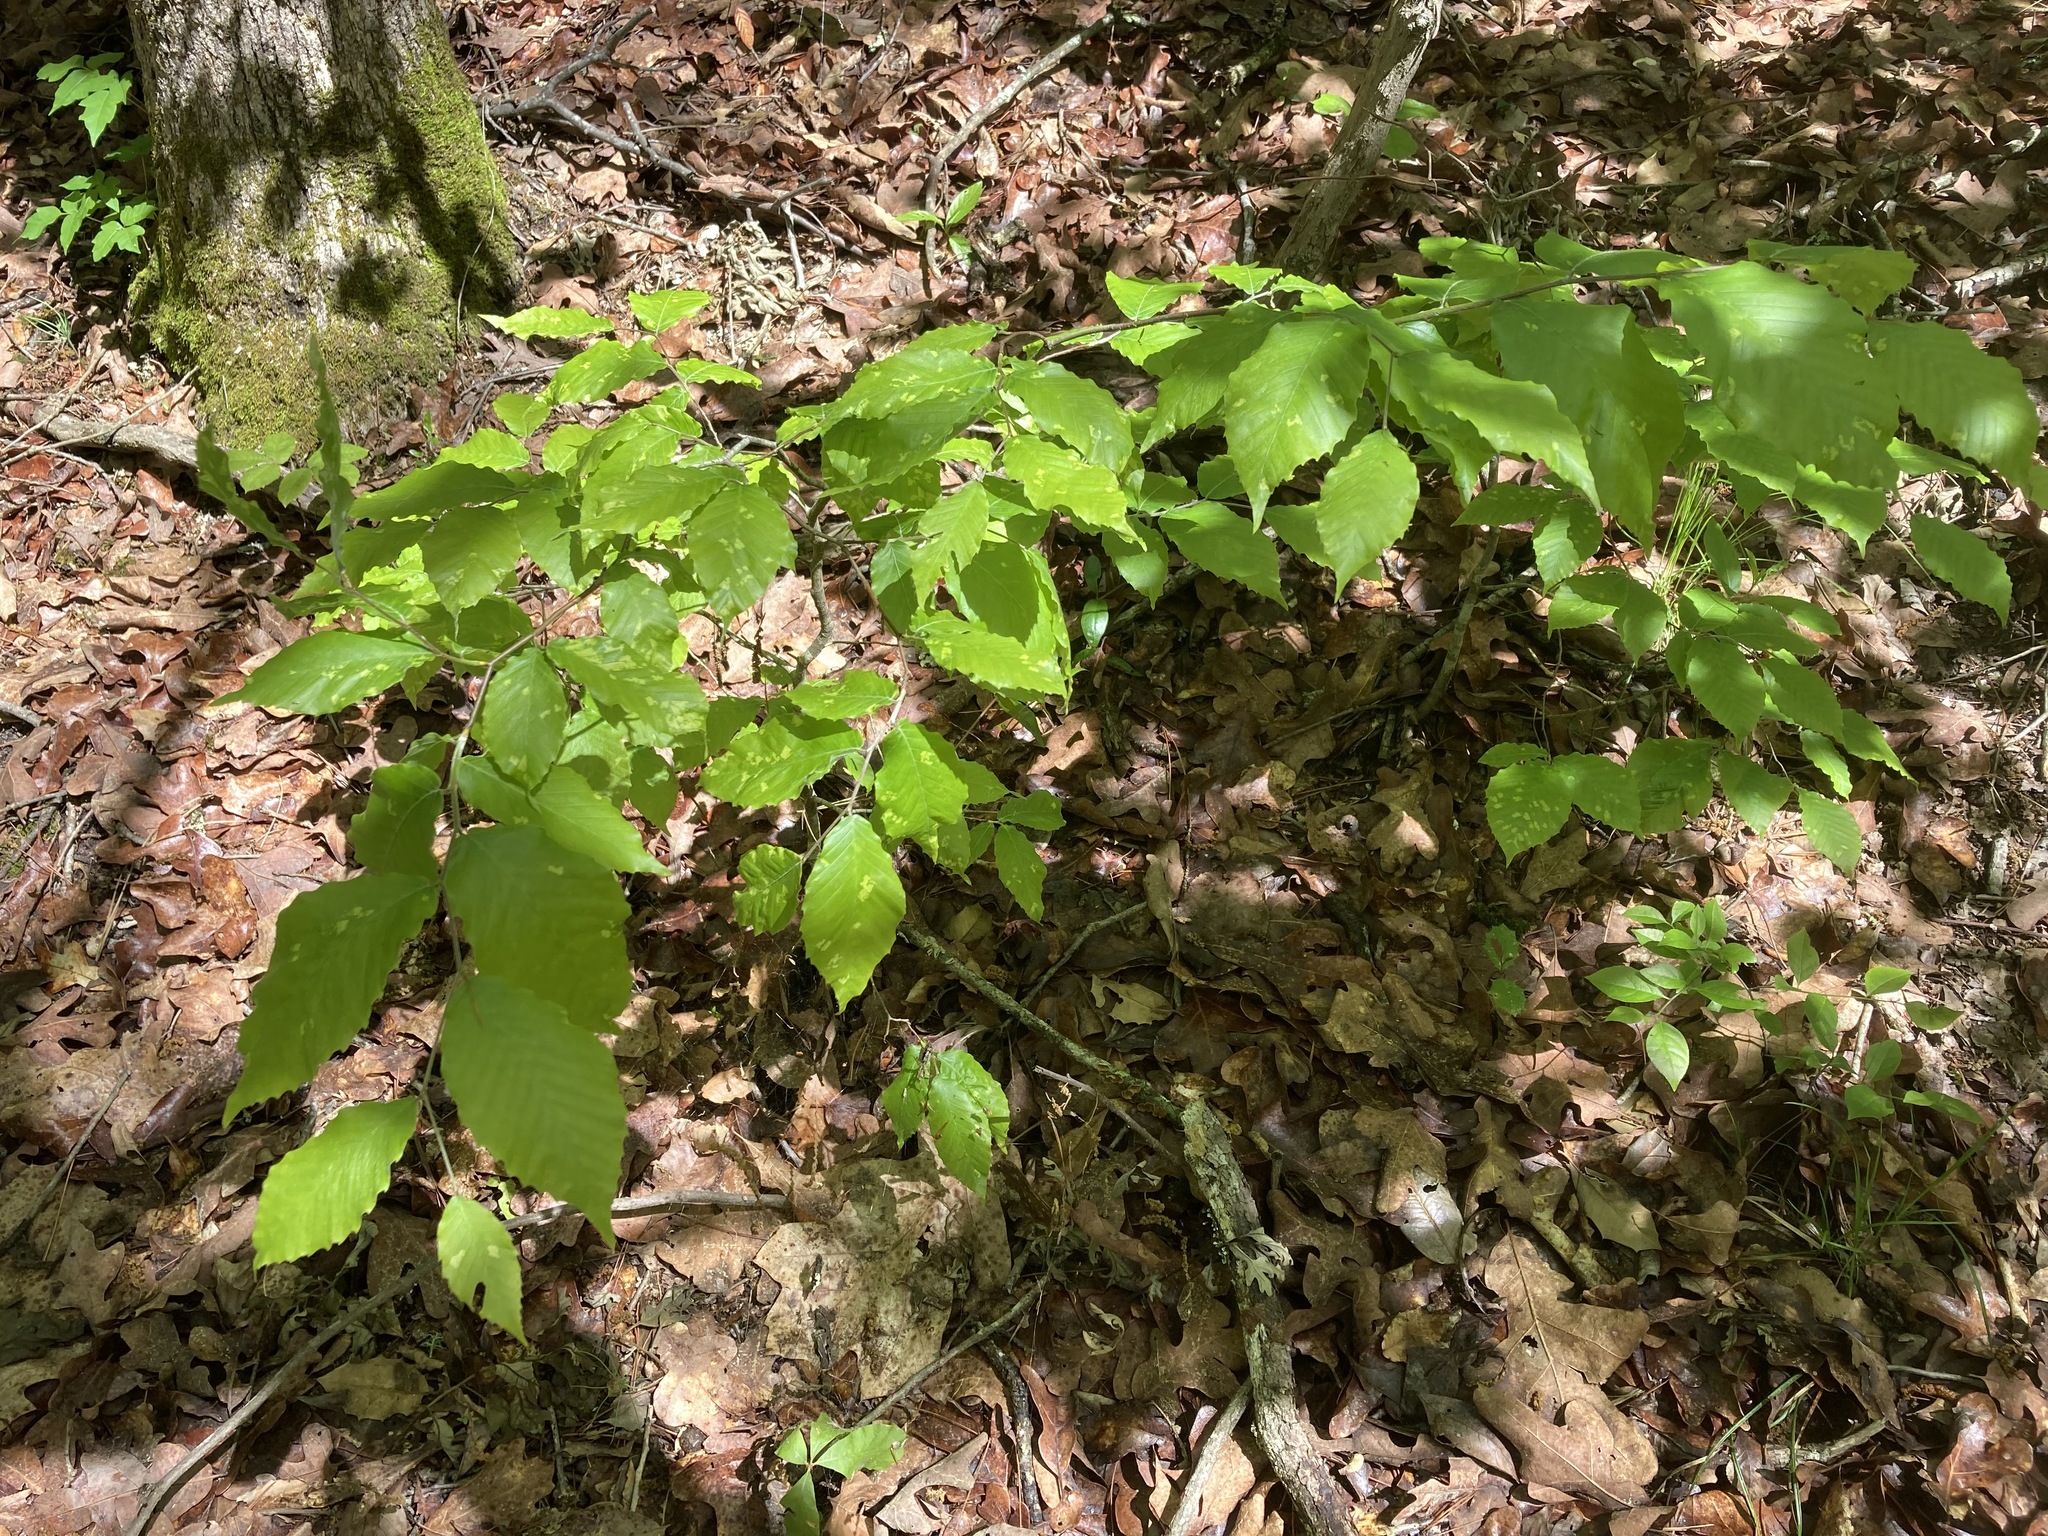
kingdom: Plantae
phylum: Tracheophyta
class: Magnoliopsida
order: Fagales
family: Fagaceae
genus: Fagus
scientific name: Fagus grandifolia
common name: American beech
